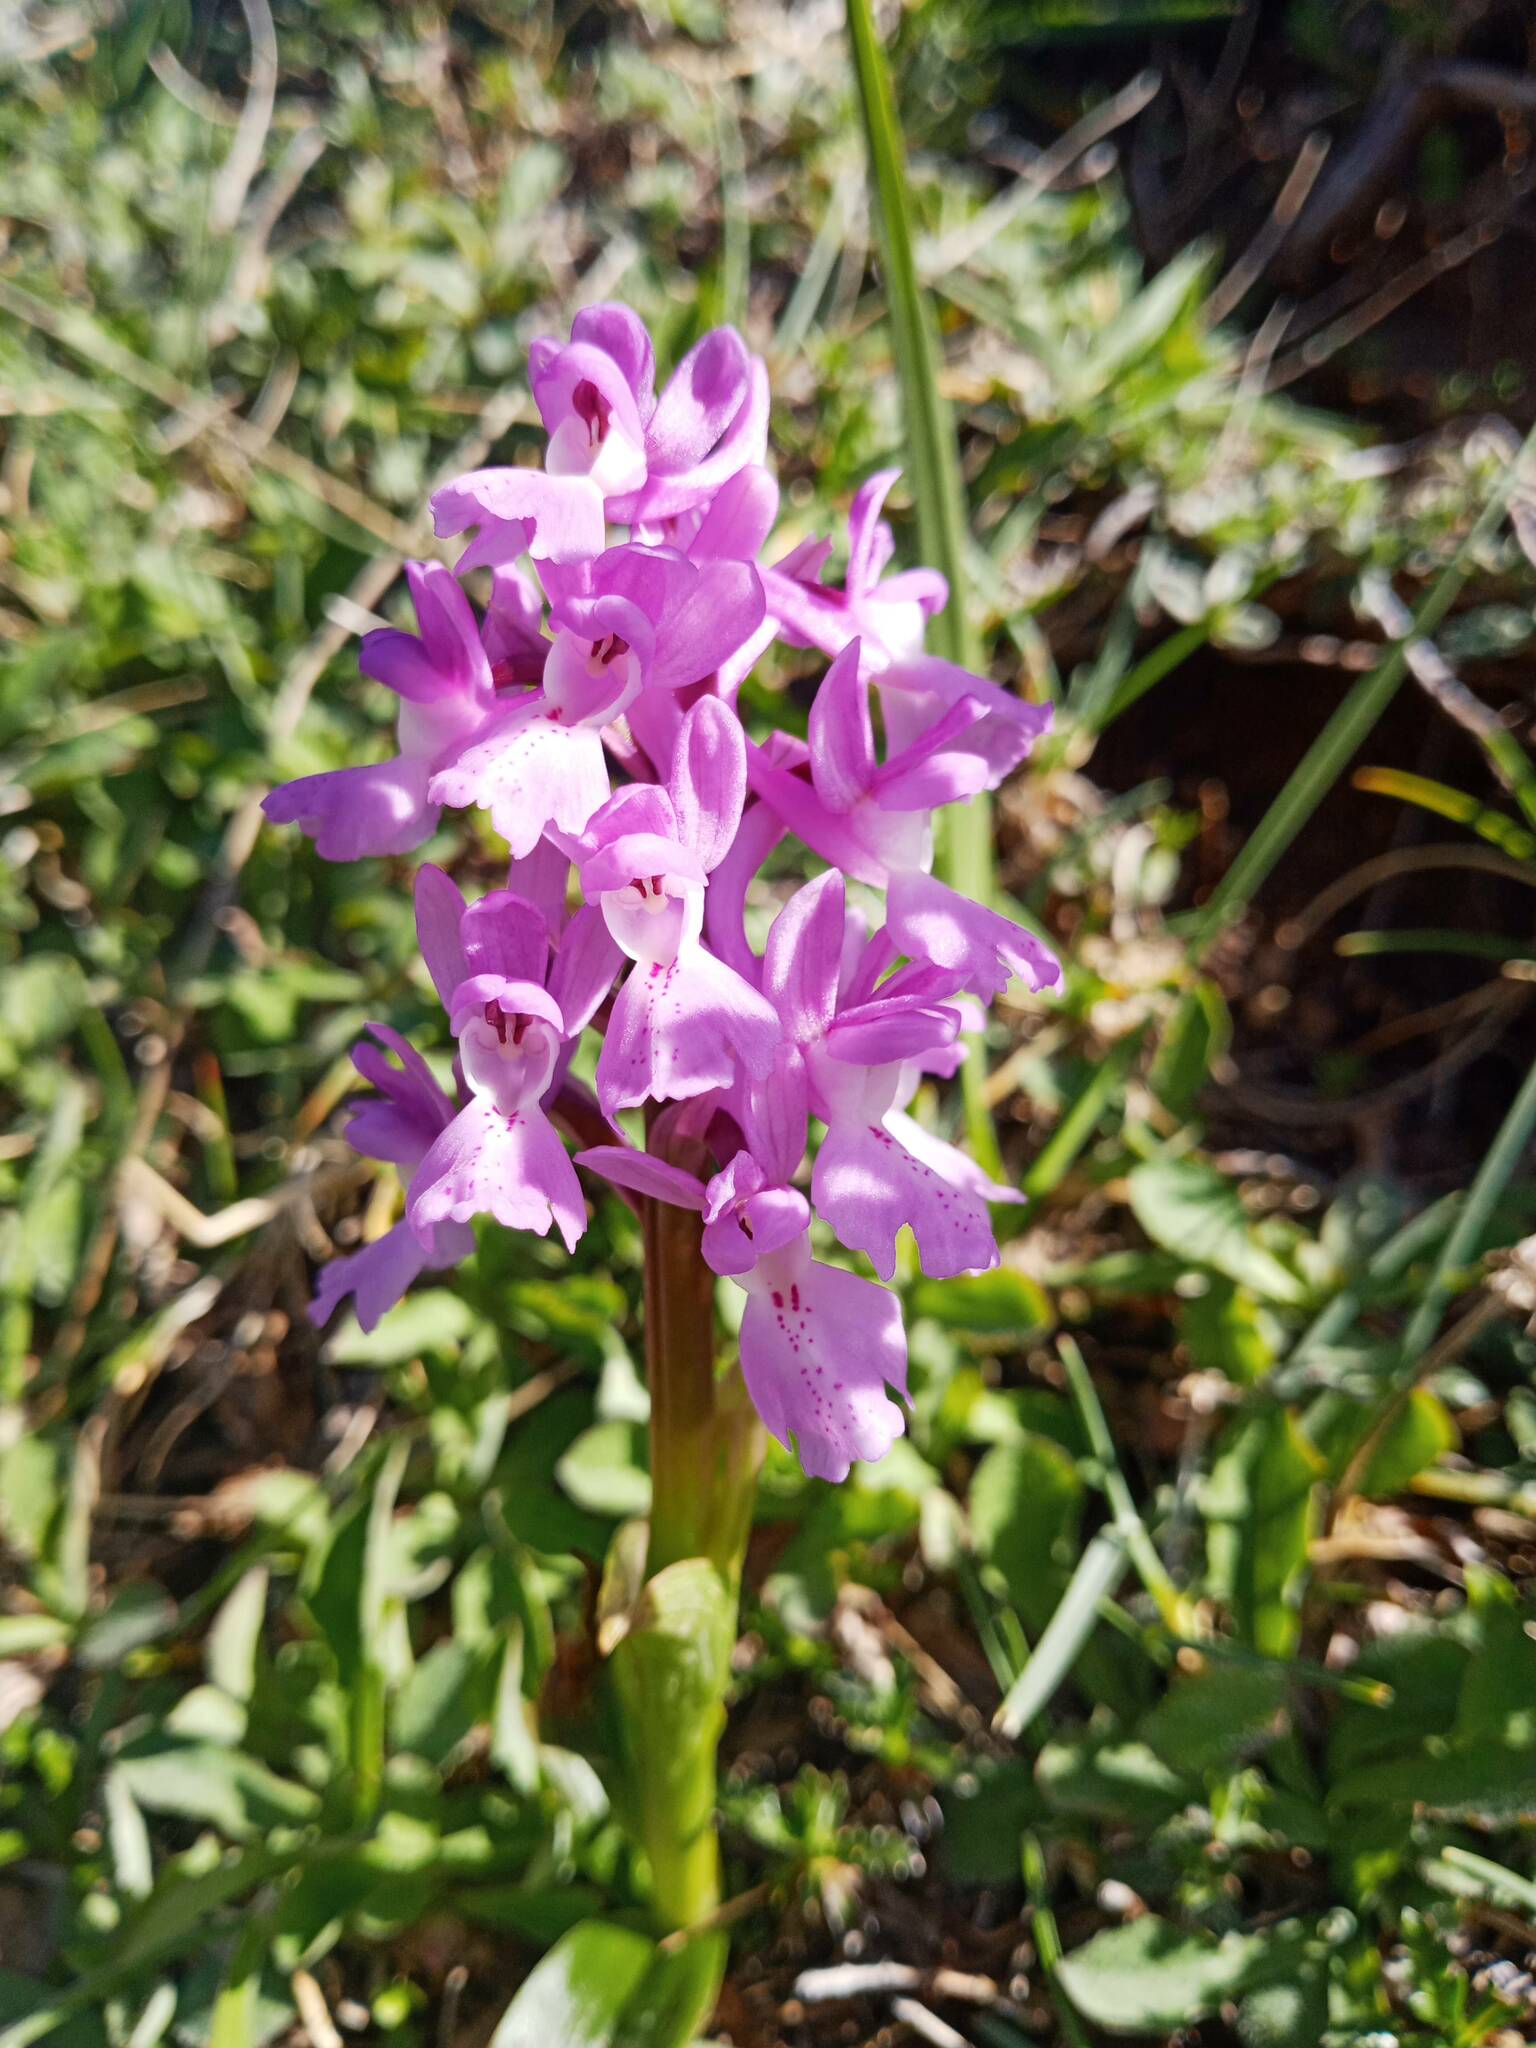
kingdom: Plantae
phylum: Tracheophyta
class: Liliopsida
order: Asparagales
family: Orchidaceae
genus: Orchis
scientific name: Orchis olbiensis
